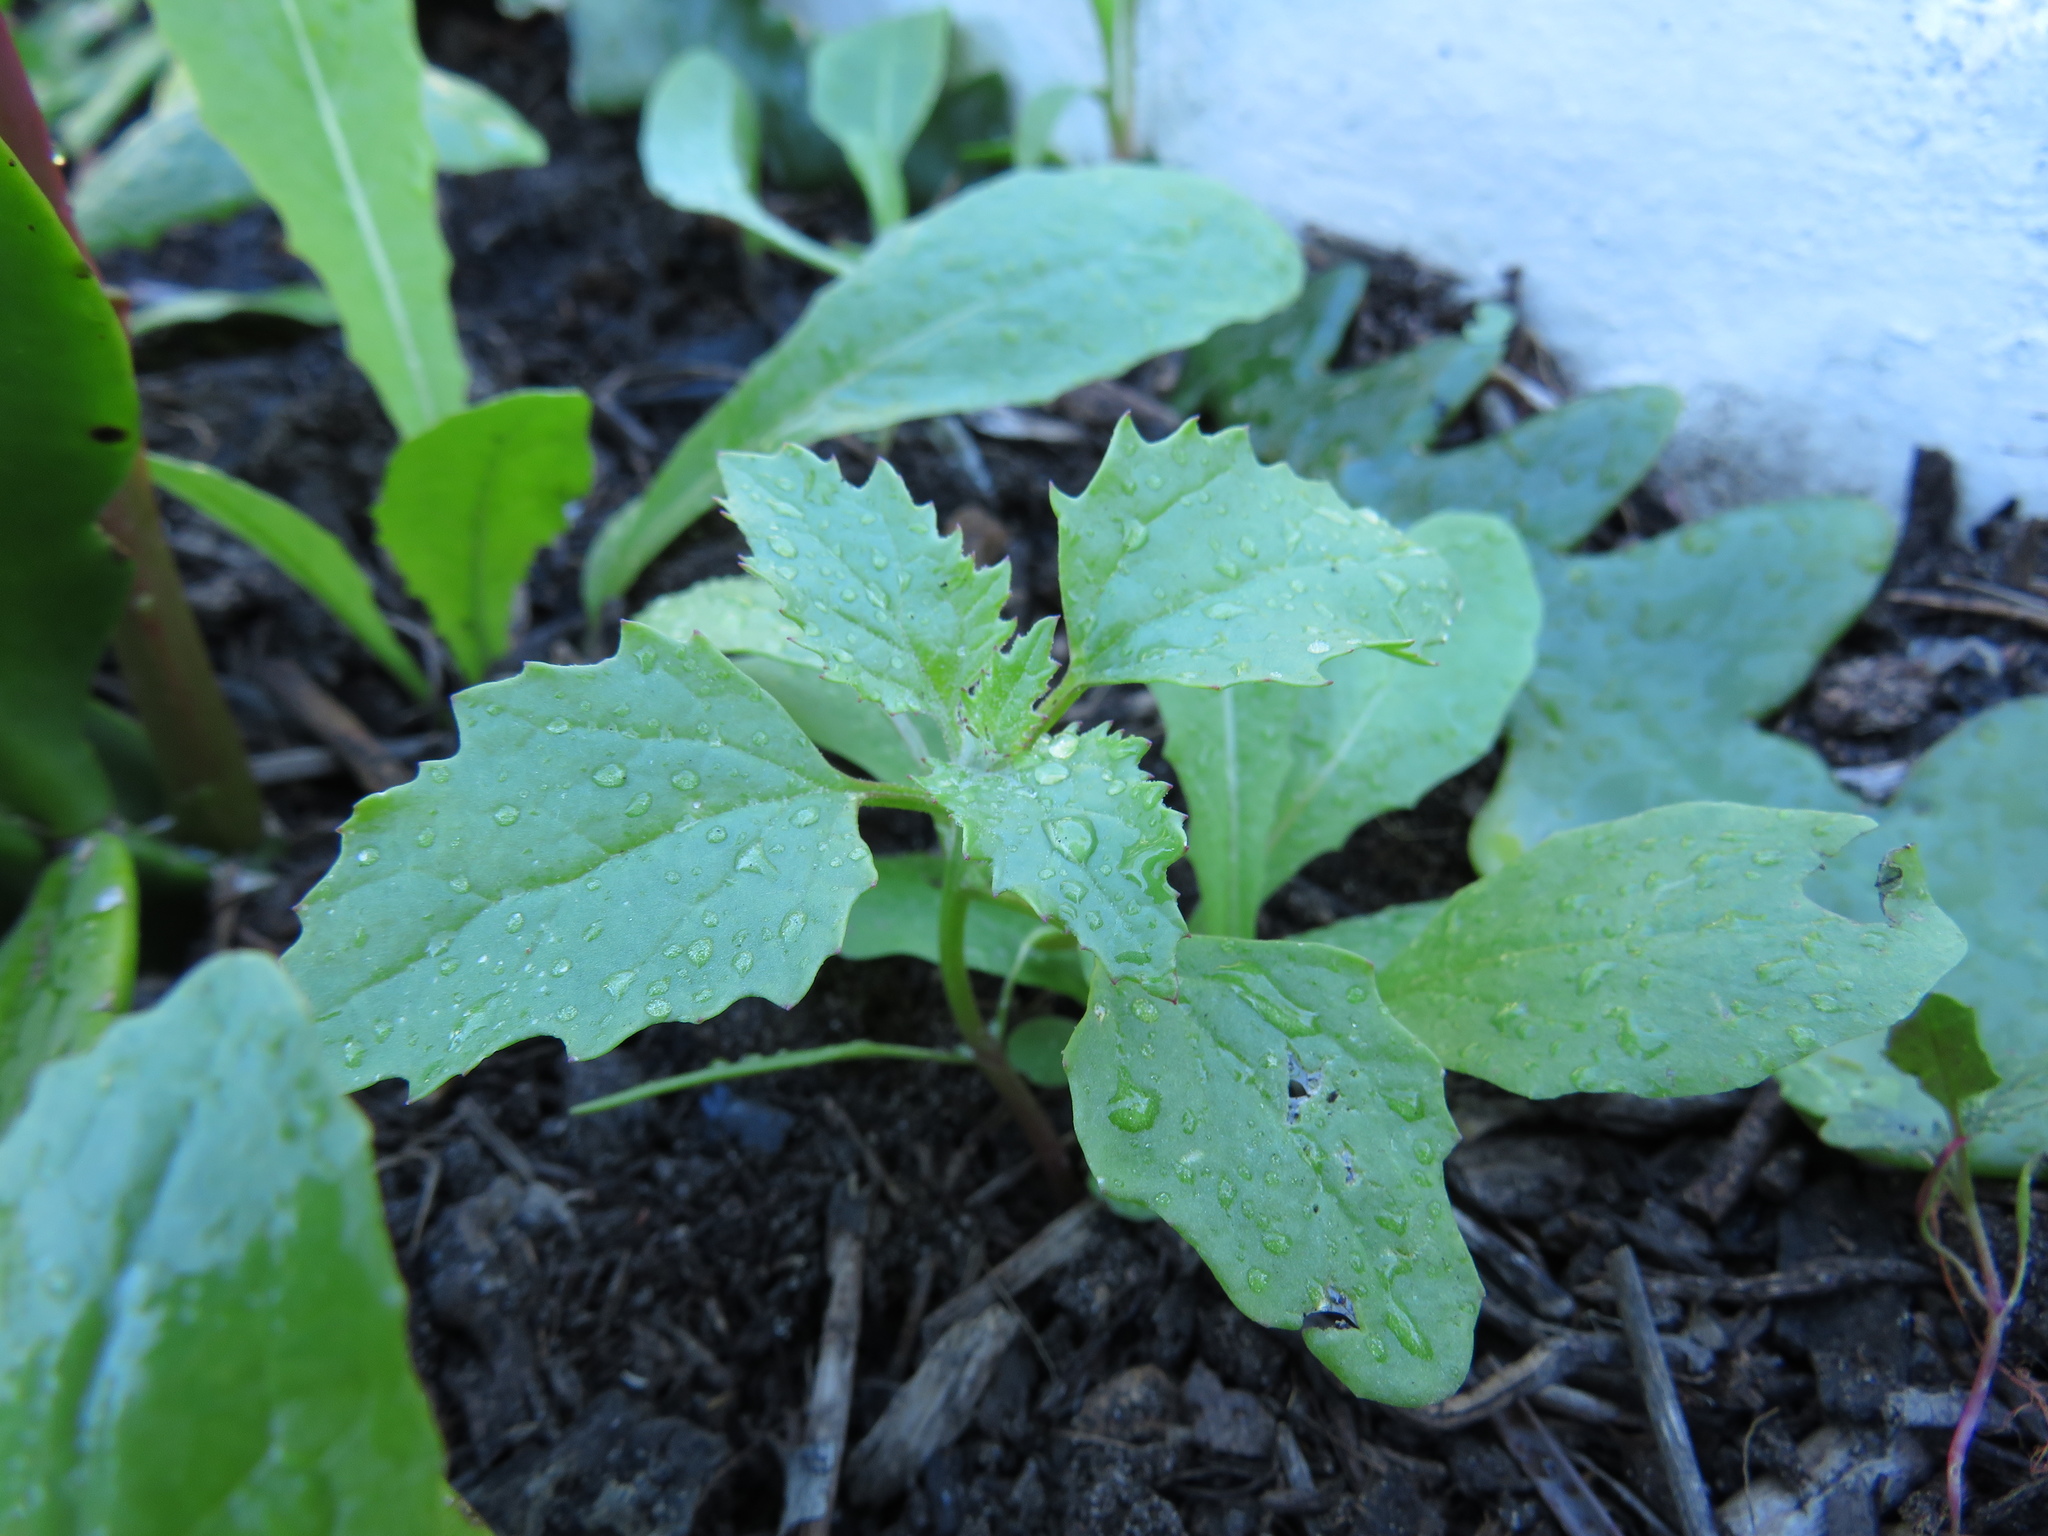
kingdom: Plantae
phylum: Tracheophyta
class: Magnoliopsida
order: Caryophyllales
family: Amaranthaceae
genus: Chenopodiastrum
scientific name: Chenopodiastrum murale
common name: Sowbane
